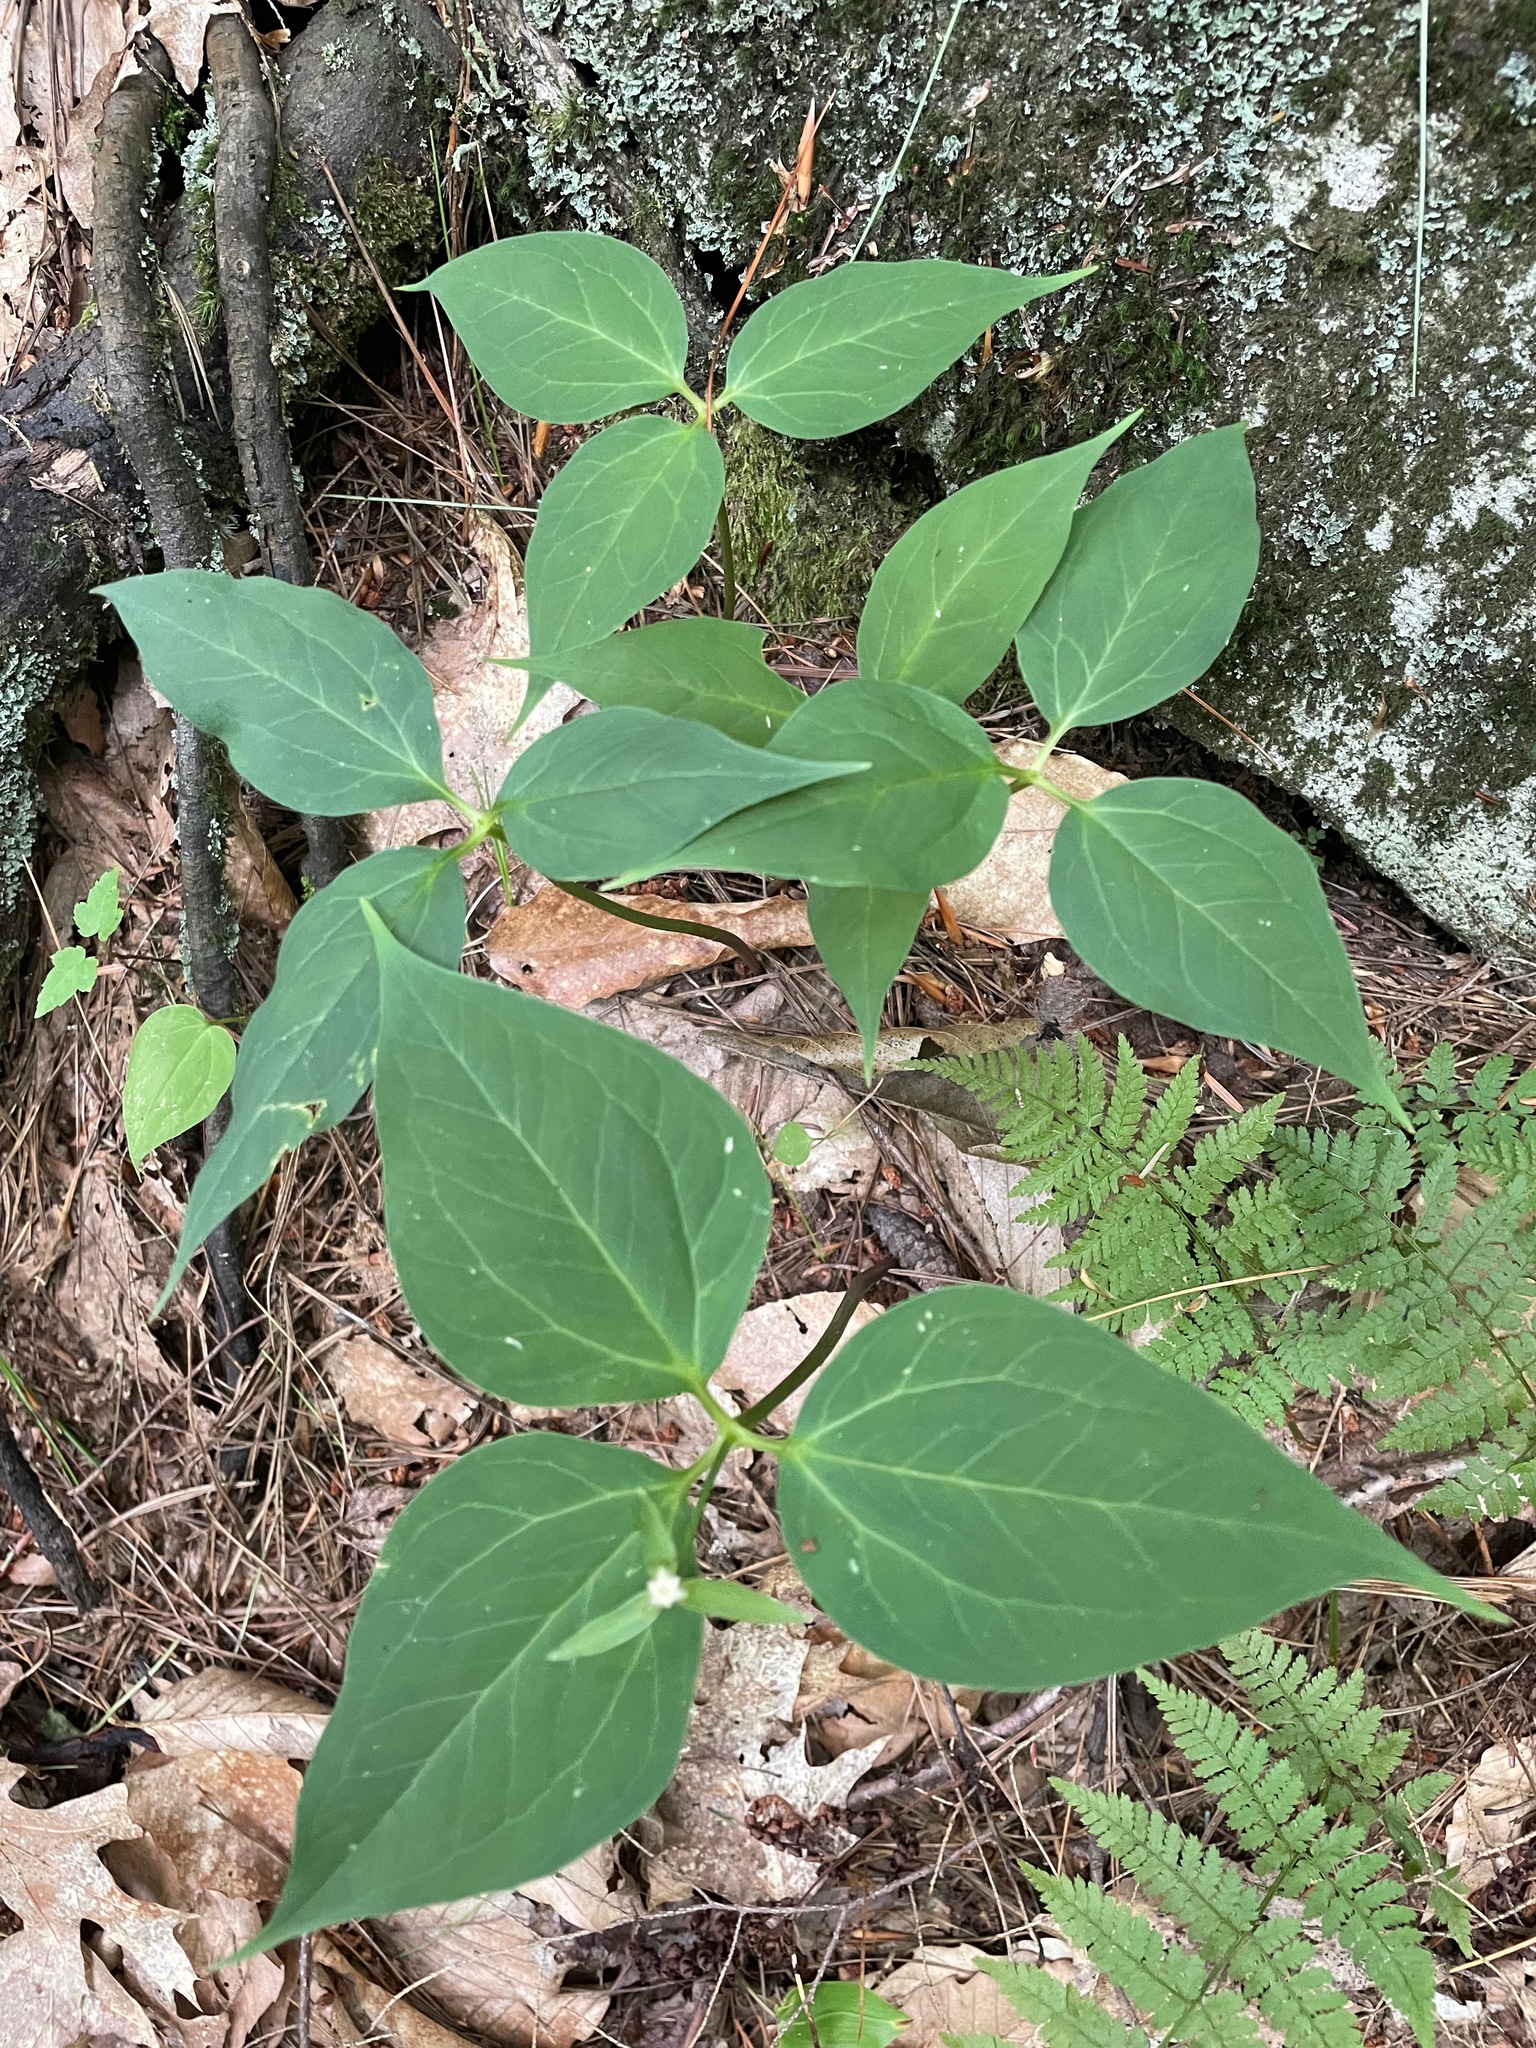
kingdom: Plantae
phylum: Tracheophyta
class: Liliopsida
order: Liliales
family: Melanthiaceae
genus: Trillium
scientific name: Trillium undulatum
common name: Paint trillium
